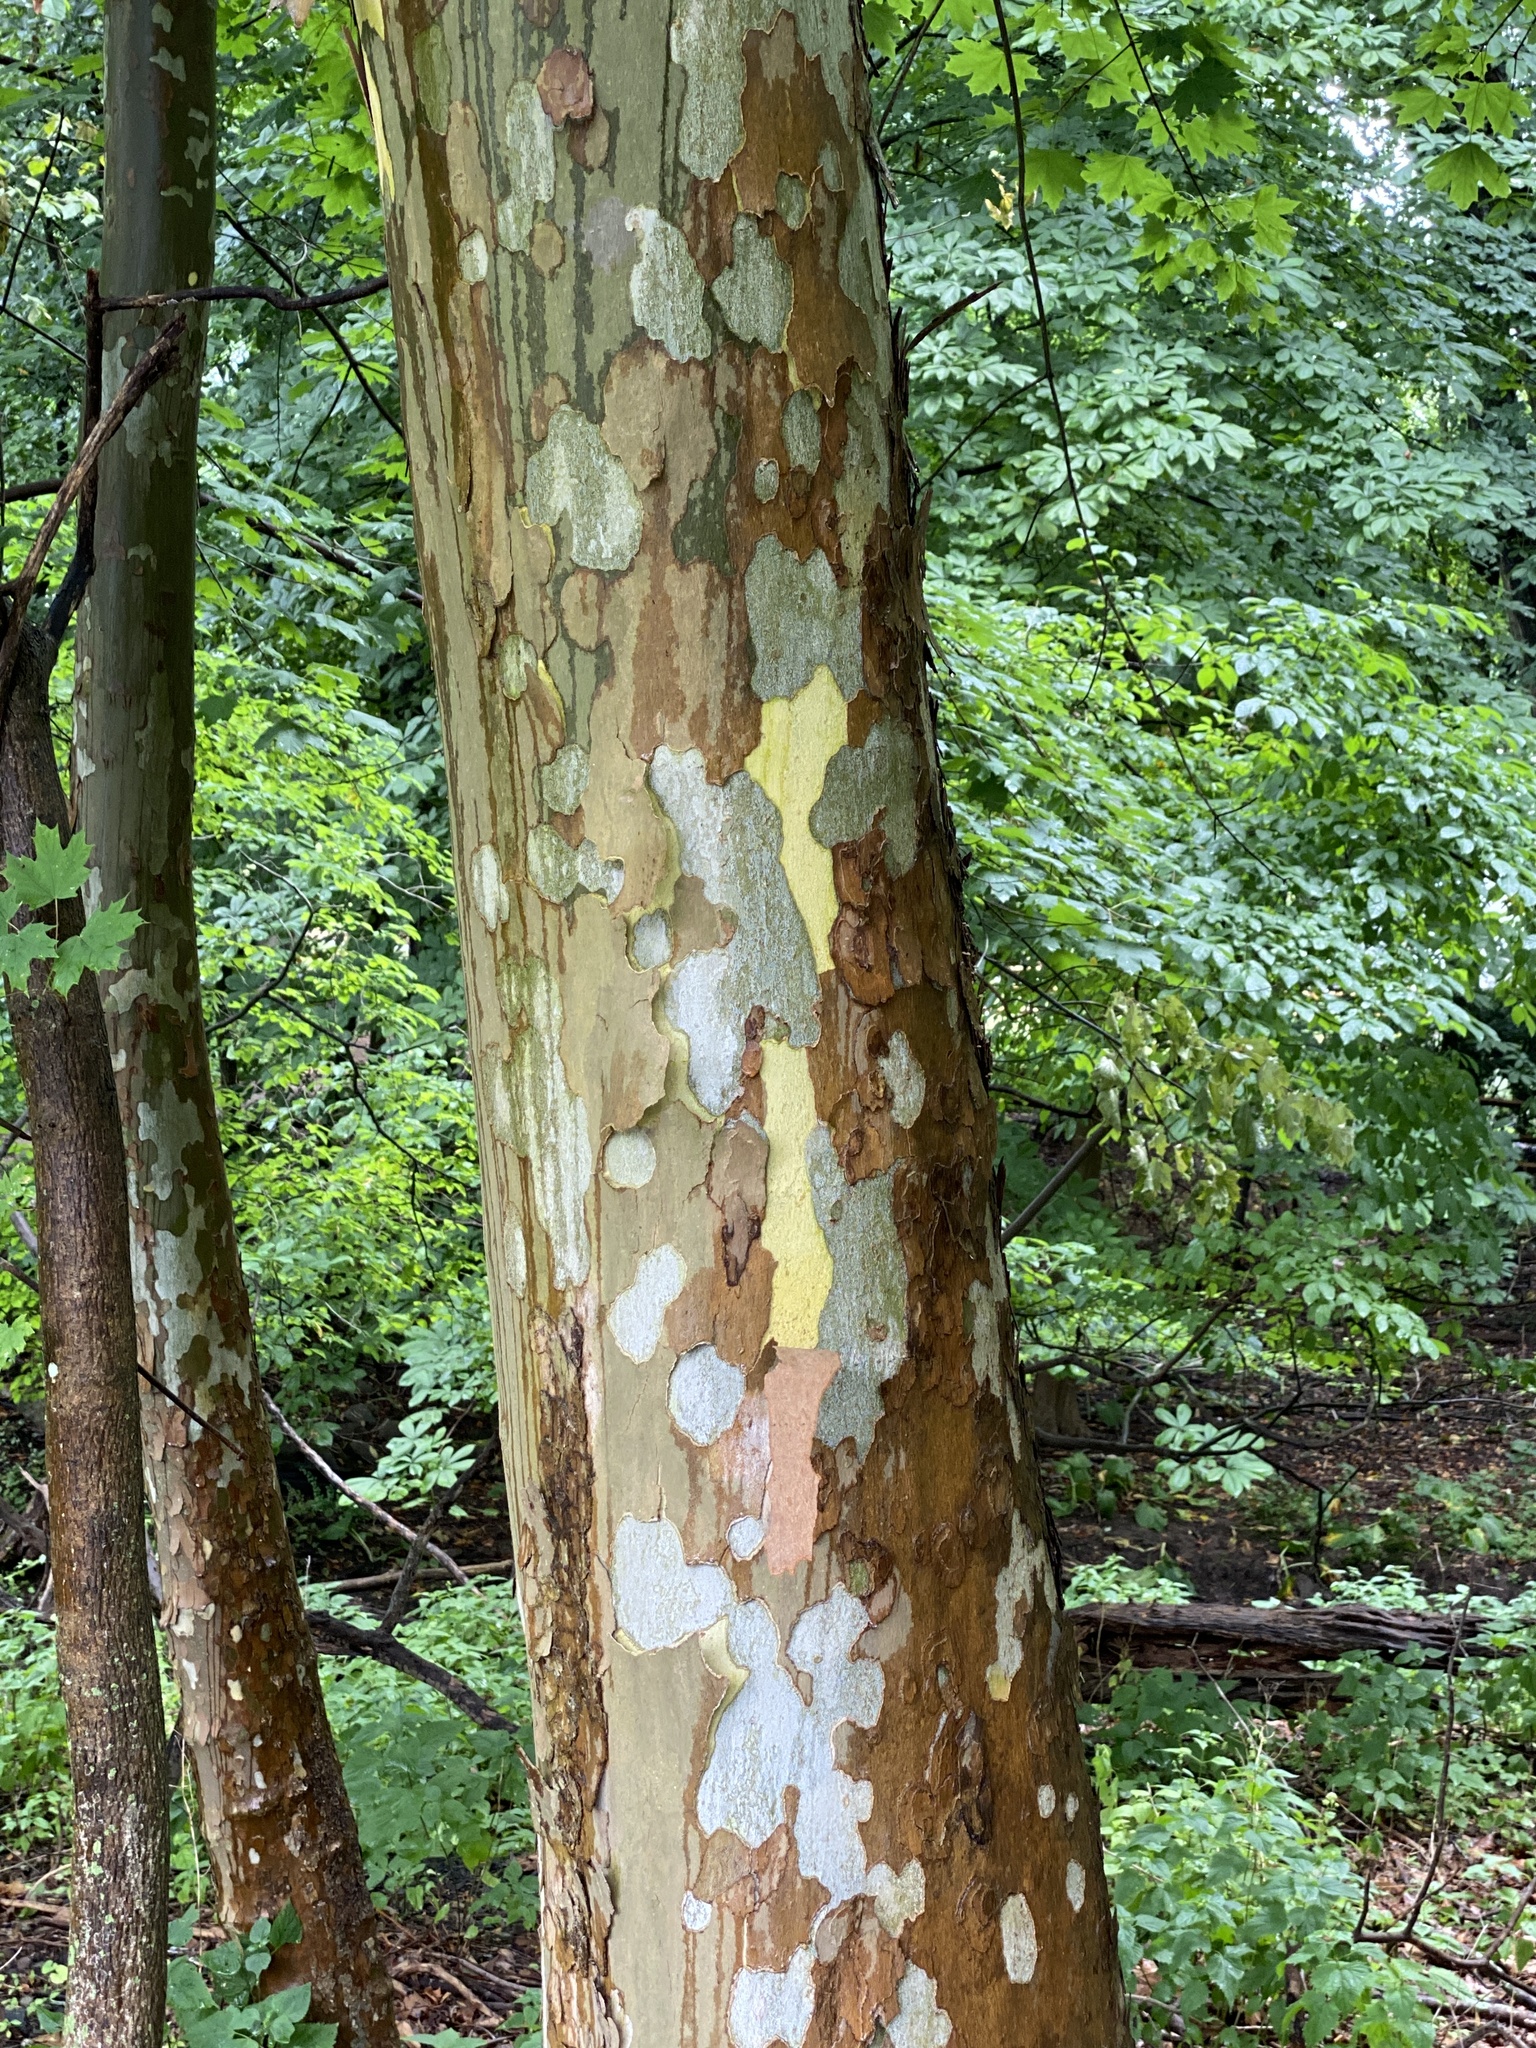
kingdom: Plantae
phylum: Tracheophyta
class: Magnoliopsida
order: Proteales
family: Platanaceae
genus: Platanus
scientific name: Platanus occidentalis
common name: American sycamore
